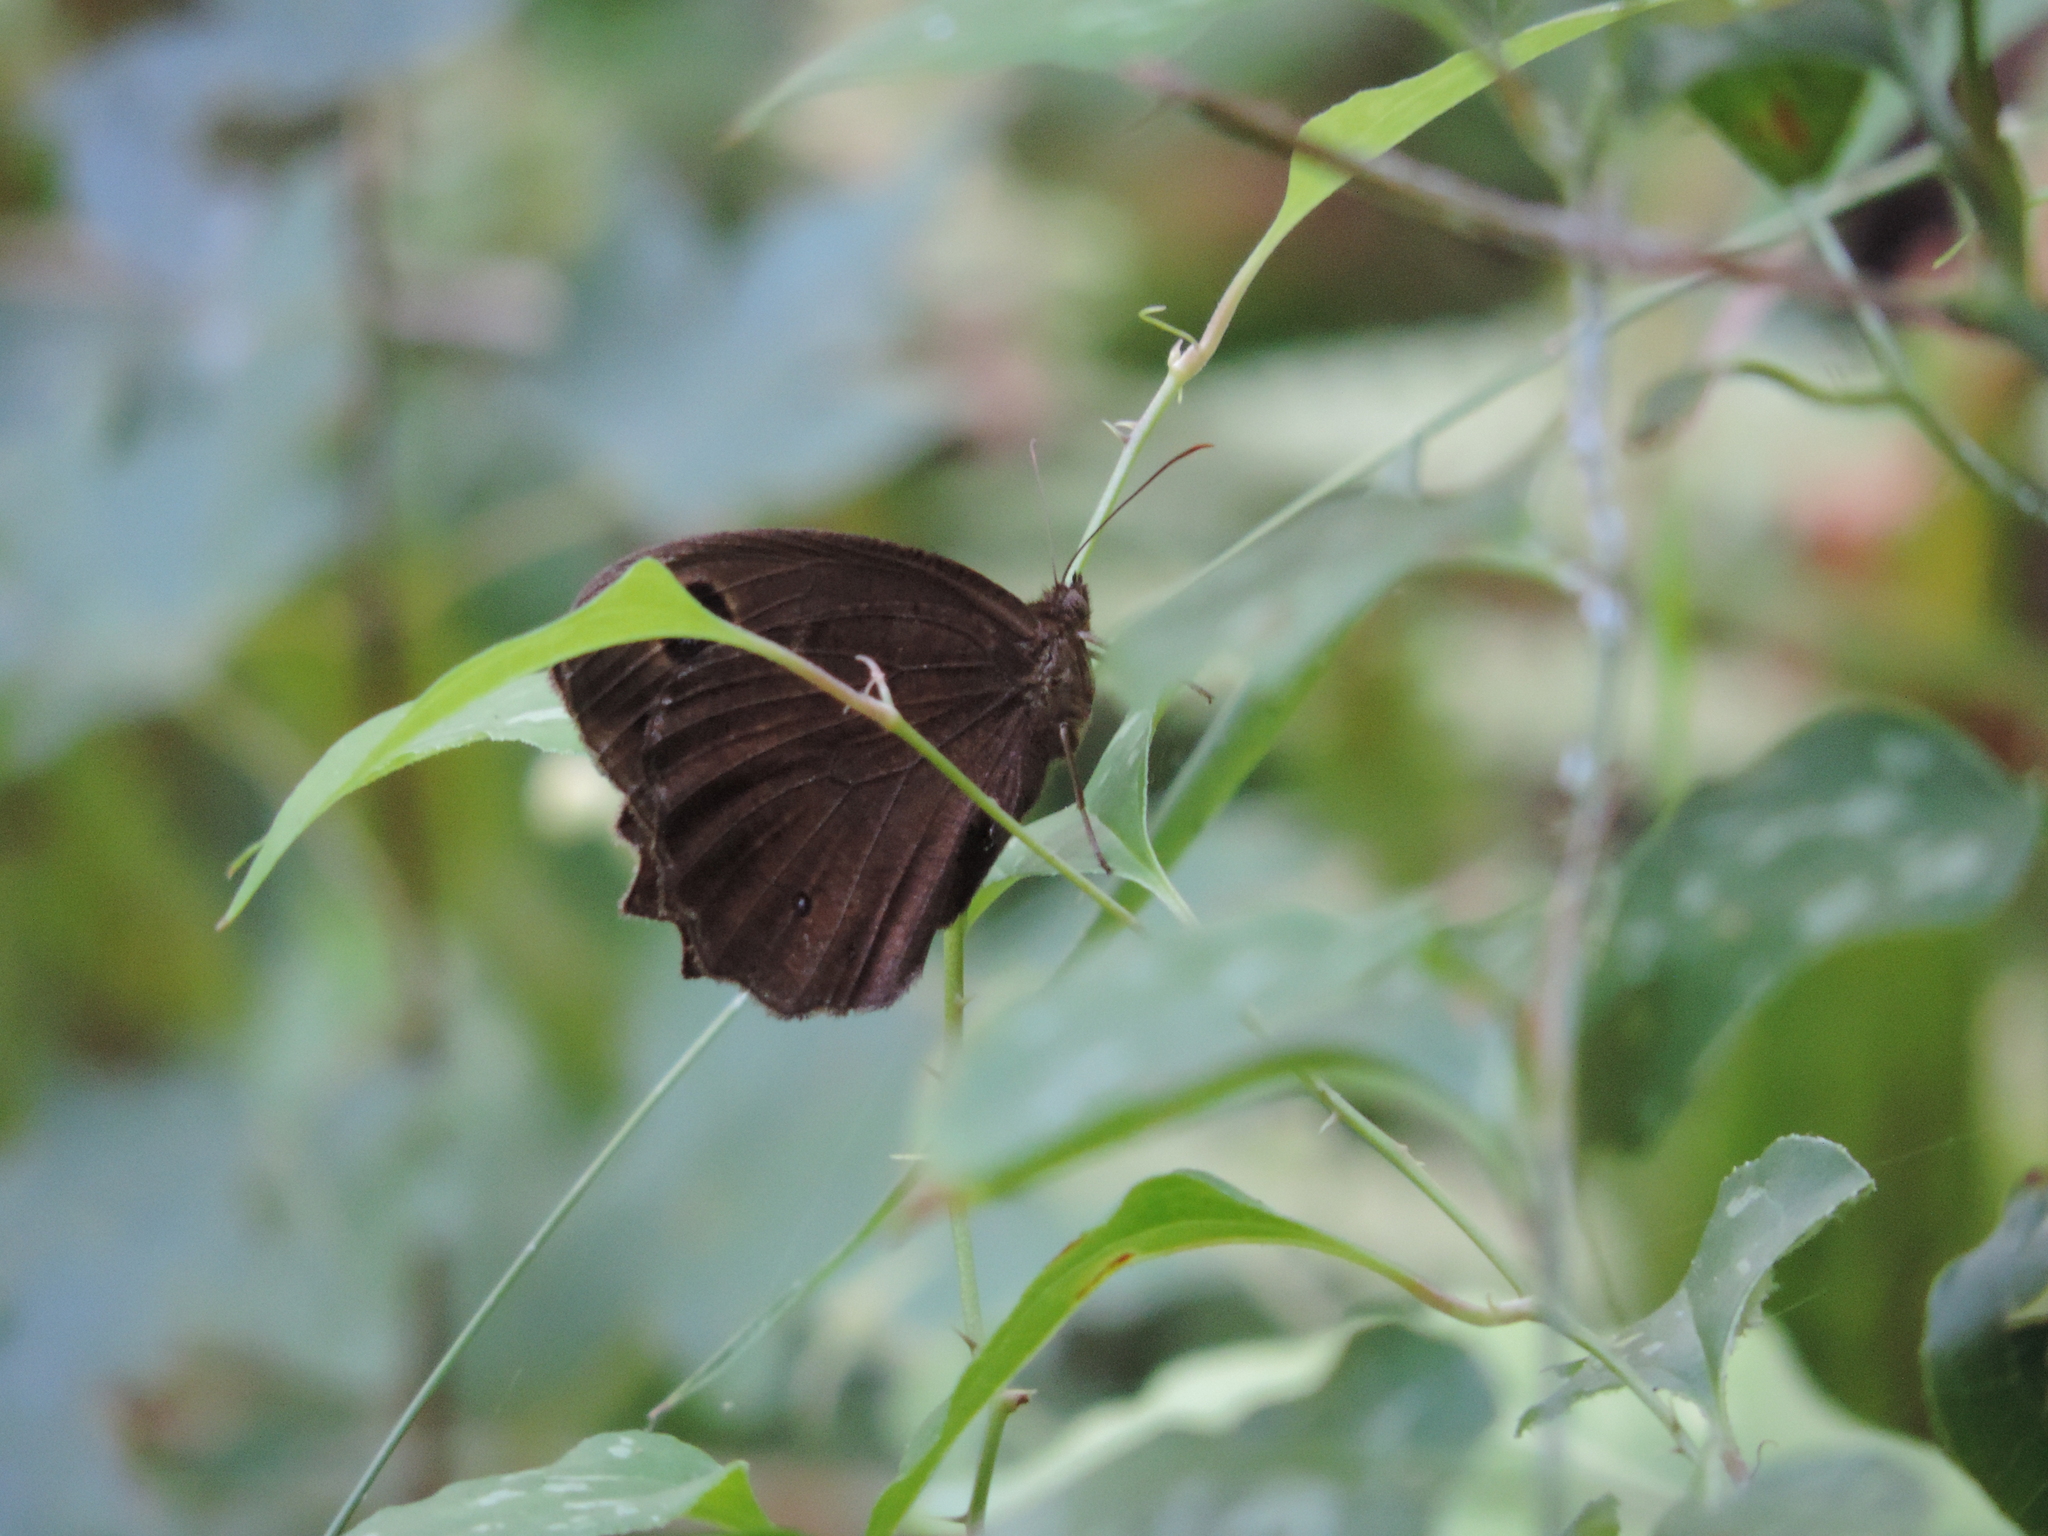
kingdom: Animalia
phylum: Arthropoda
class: Insecta
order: Lepidoptera
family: Nymphalidae
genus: Minois
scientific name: Minois dryas
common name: Dryad
